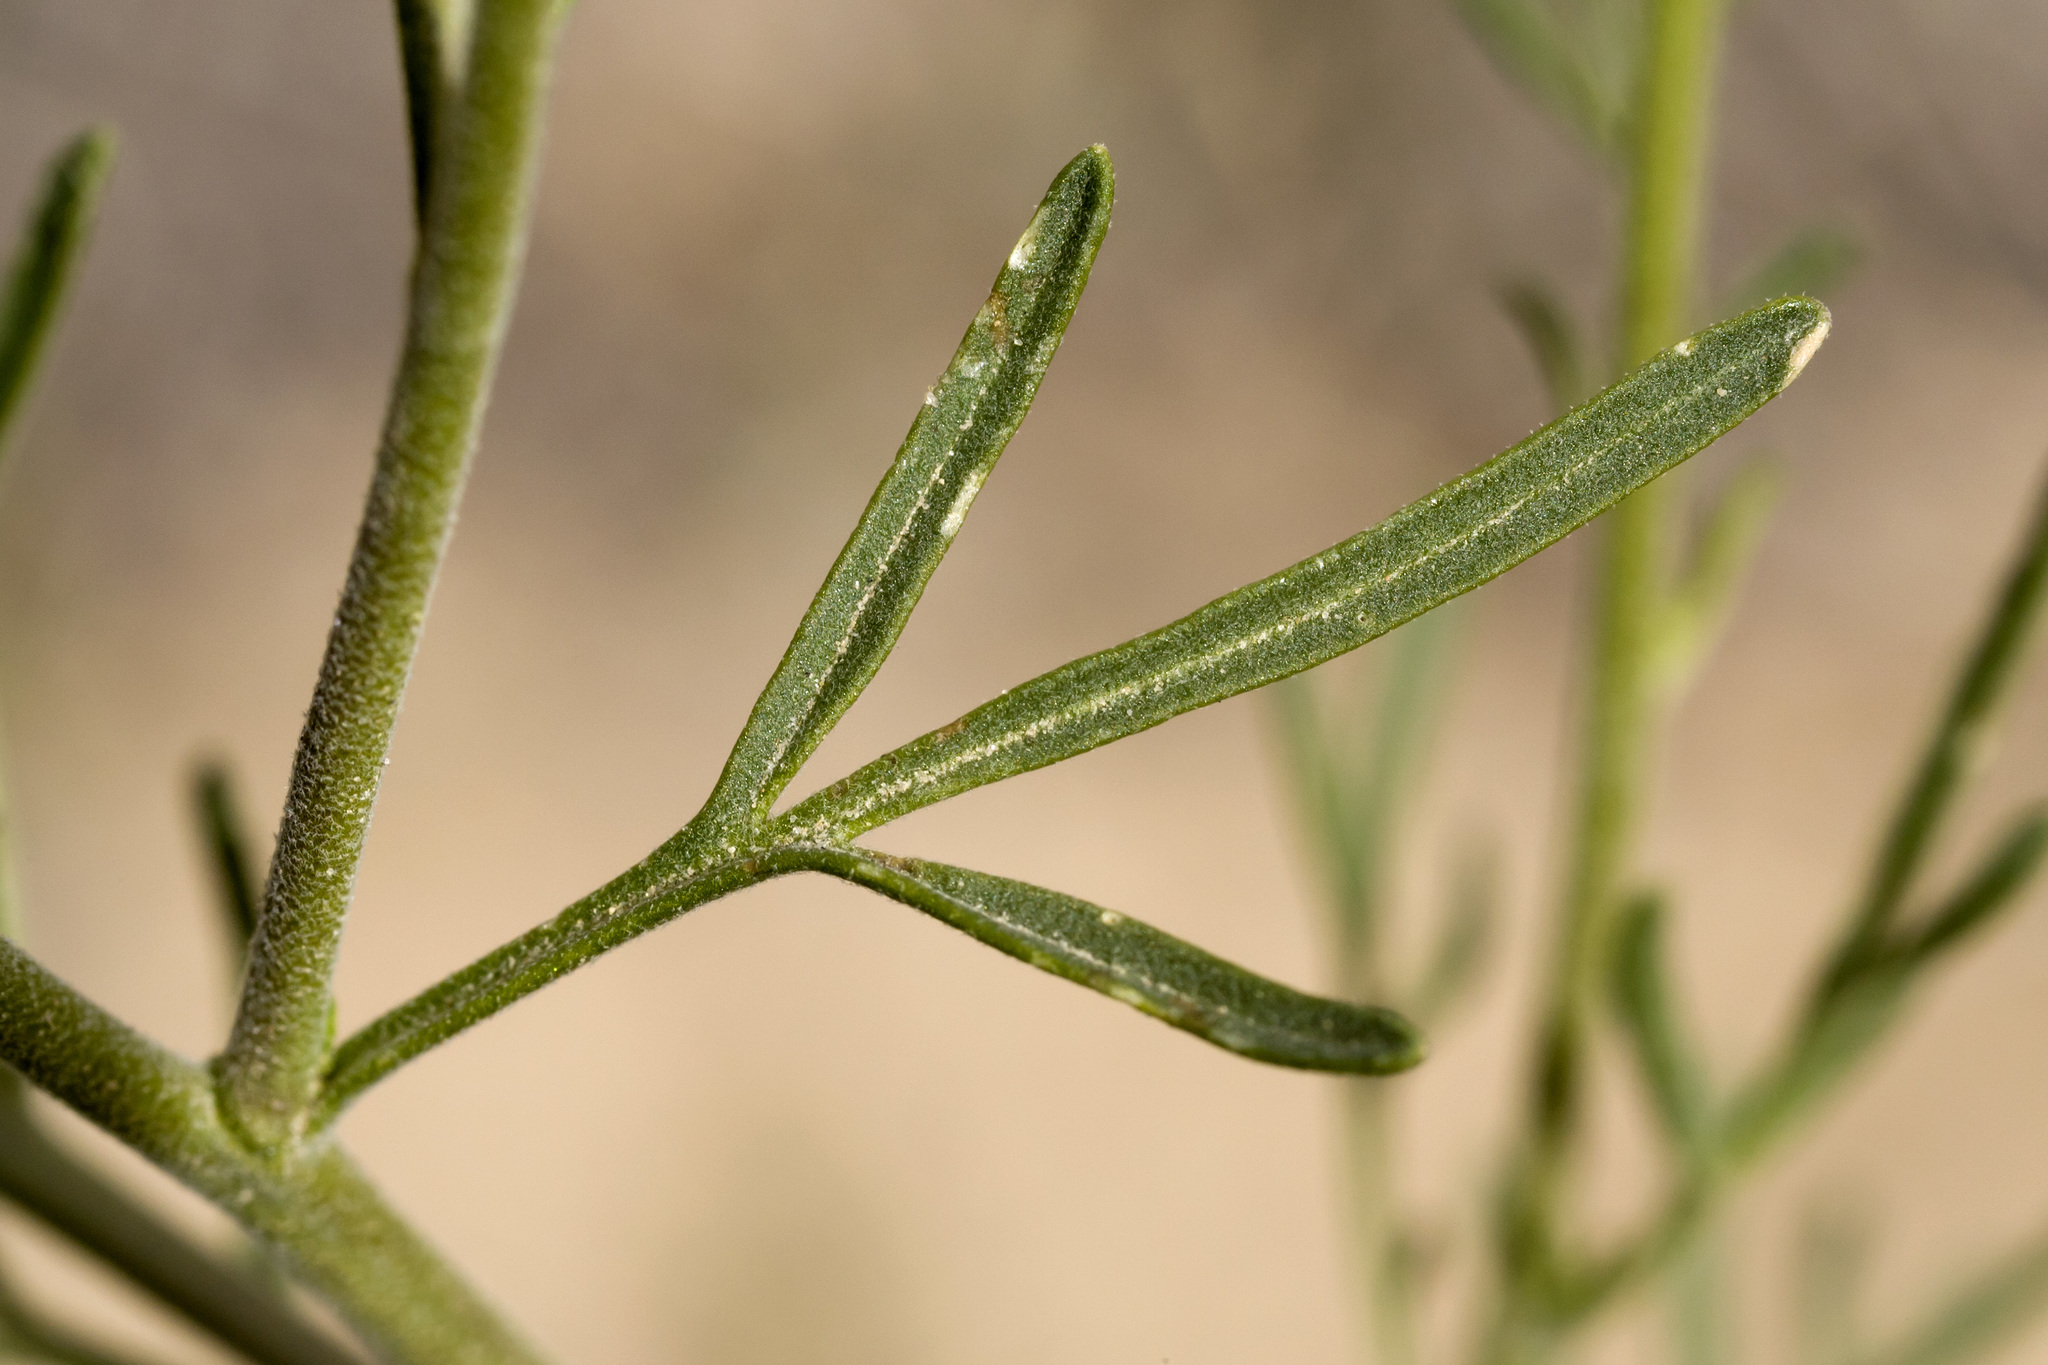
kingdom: Plantae
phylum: Tracheophyta
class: Magnoliopsida
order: Brassicales
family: Brassicaceae
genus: Descurainia
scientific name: Descurainia incisa
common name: Cut-leaved tansy mustard
